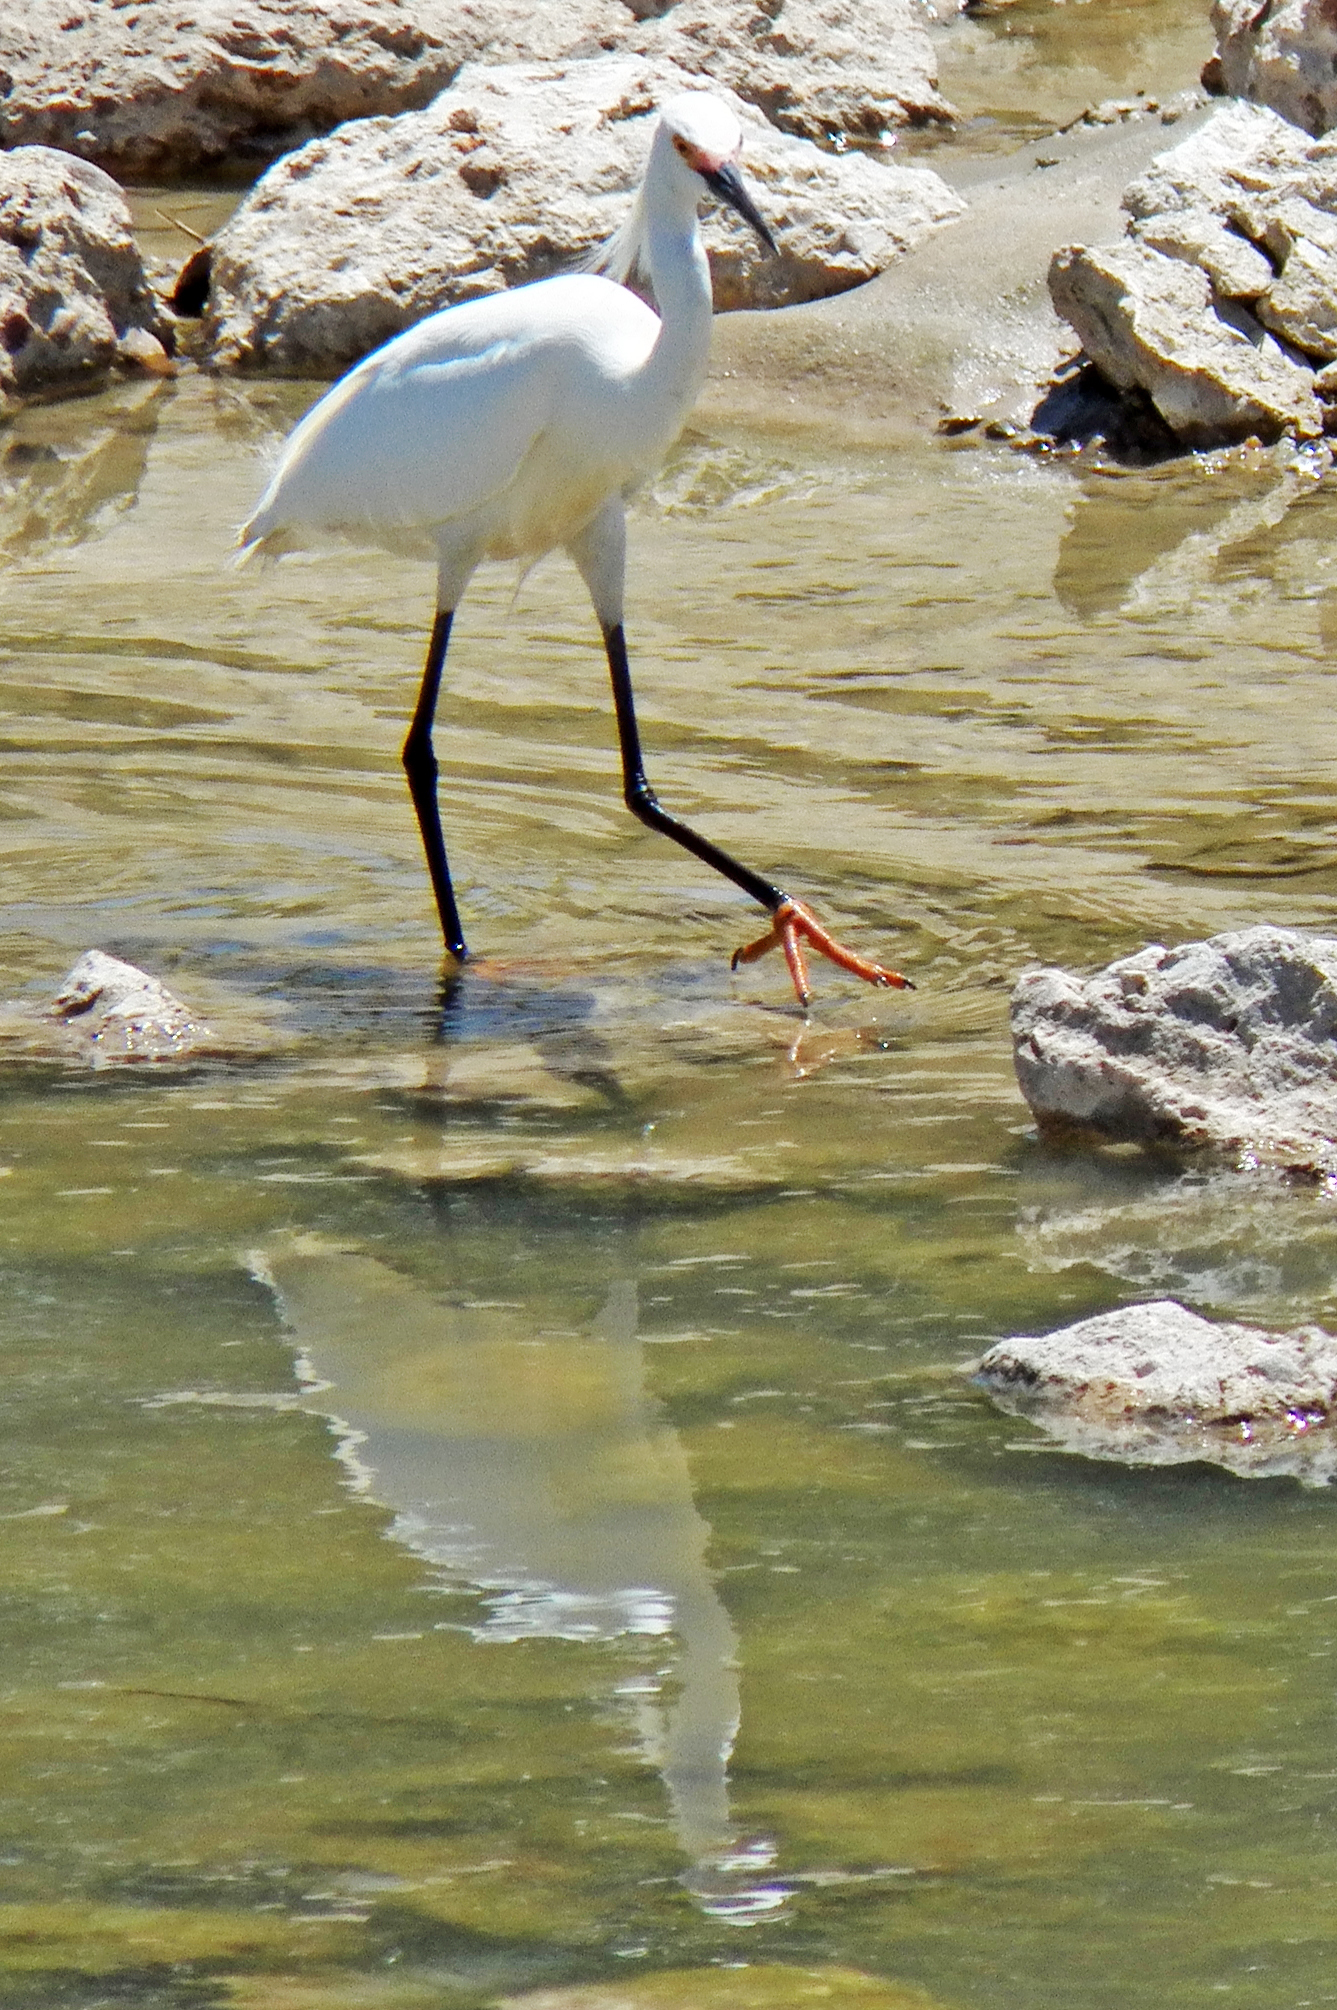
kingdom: Animalia
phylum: Chordata
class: Aves
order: Pelecaniformes
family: Ardeidae
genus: Egretta
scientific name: Egretta thula
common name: Snowy egret
